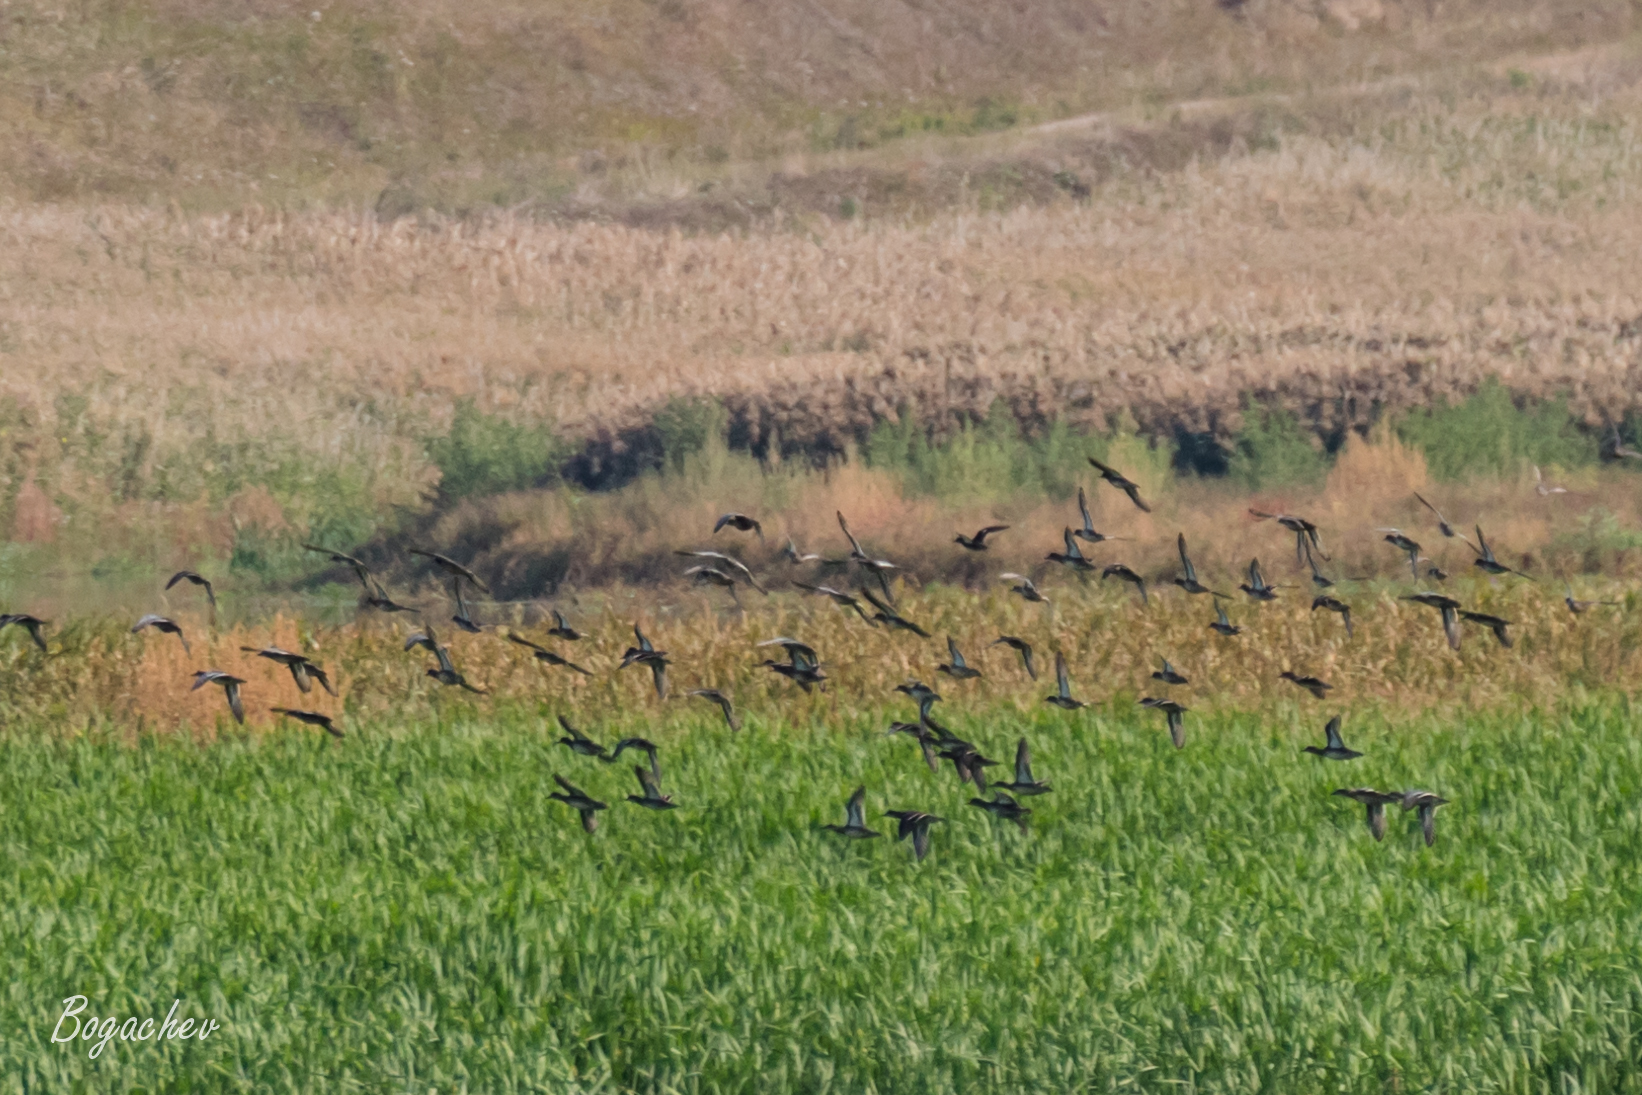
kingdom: Animalia
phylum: Chordata
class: Aves
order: Anseriformes
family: Anatidae
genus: Anas
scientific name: Anas platyrhynchos
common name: Mallard
